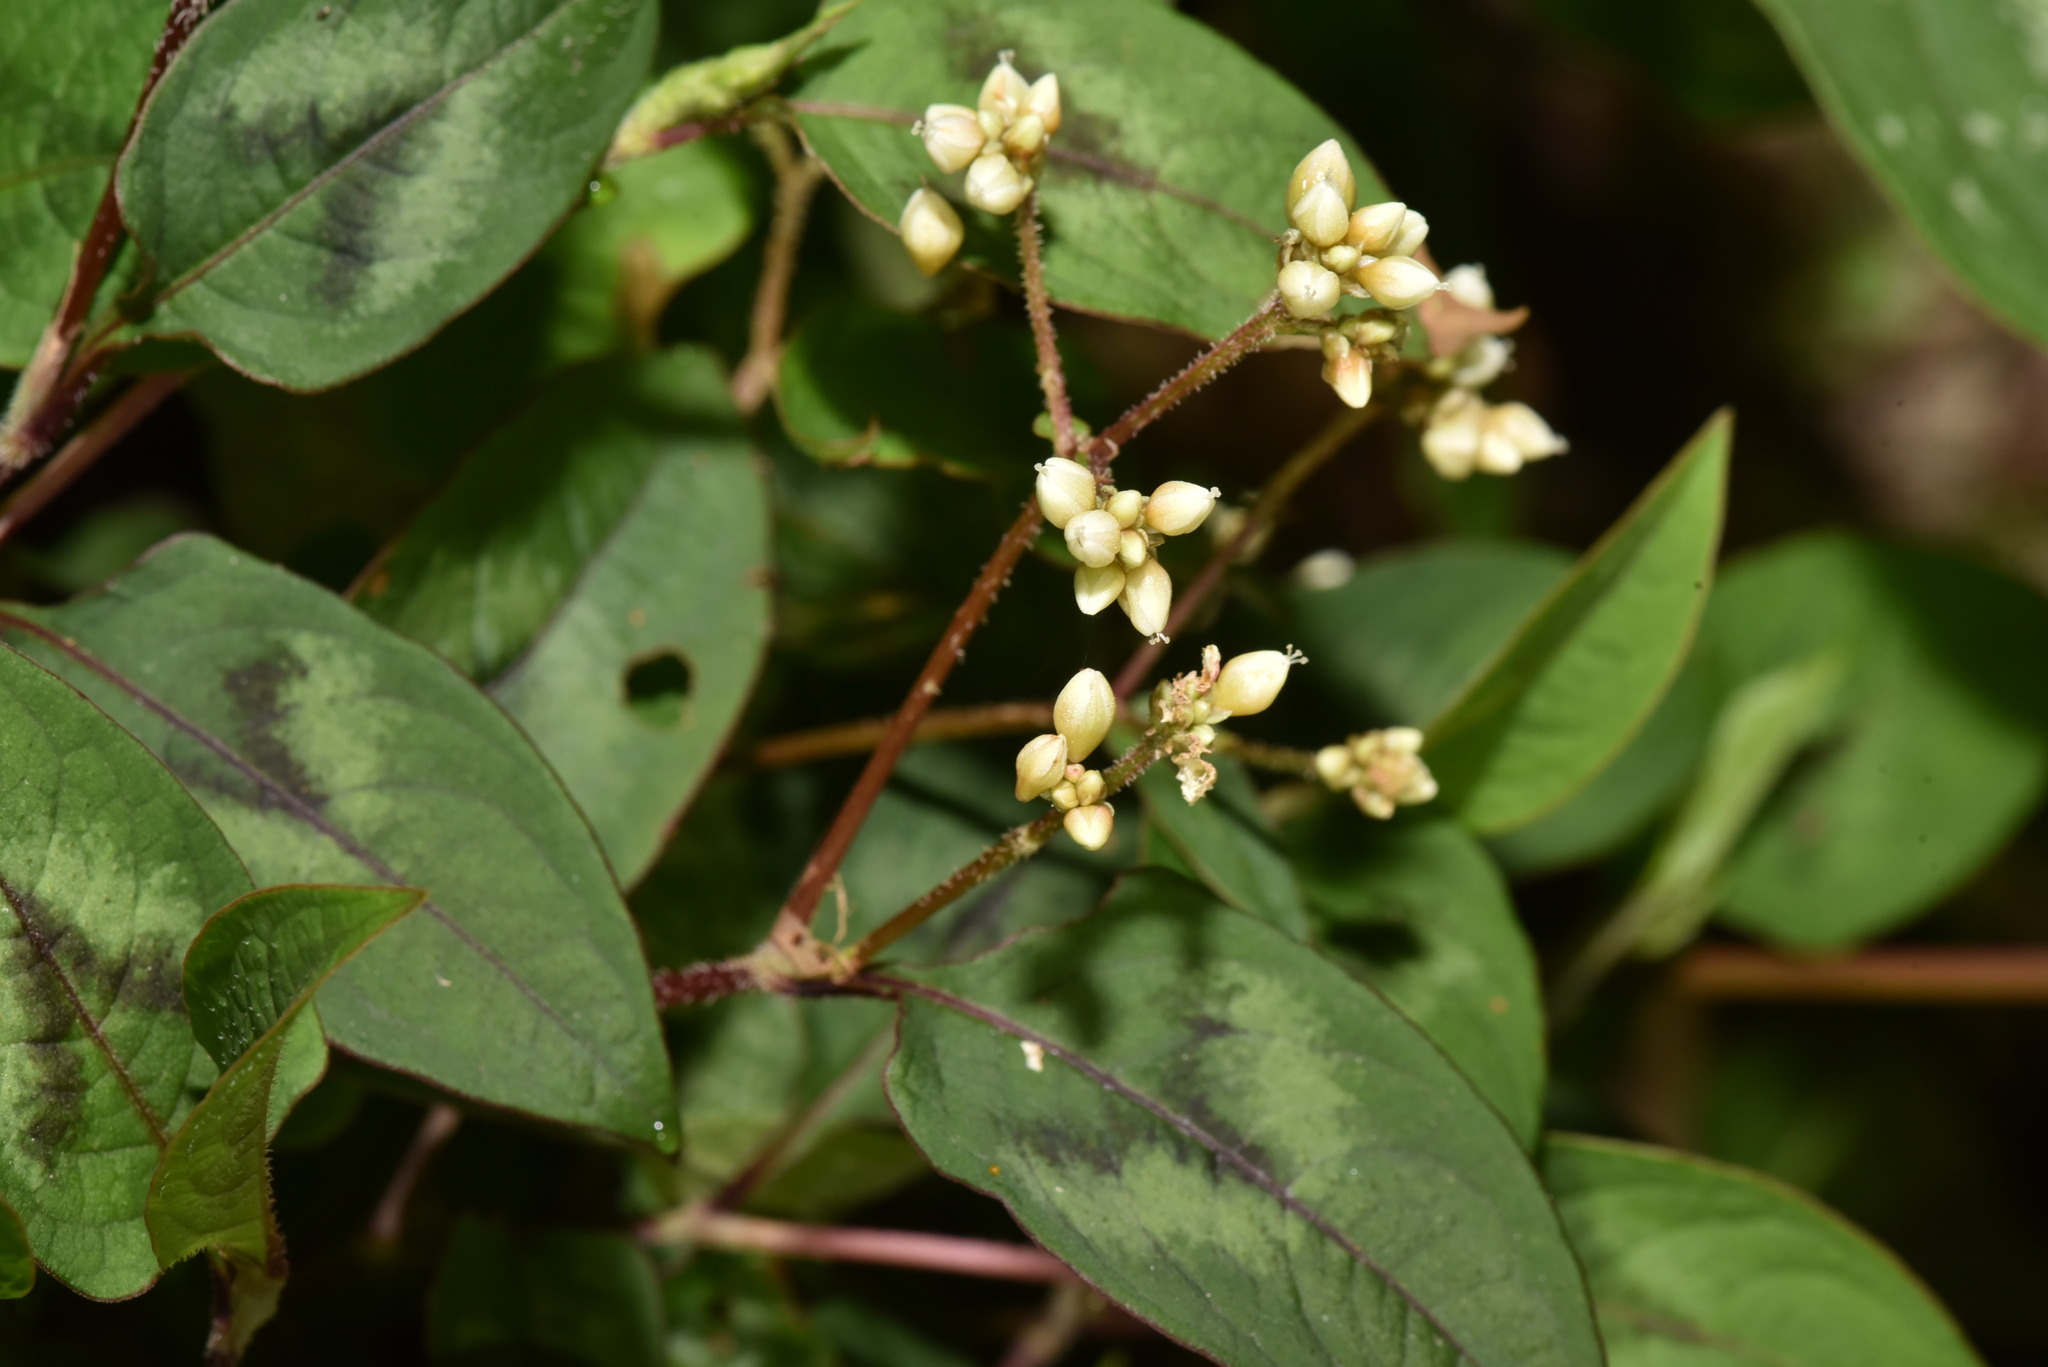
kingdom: Plantae
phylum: Tracheophyta
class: Magnoliopsida
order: Caryophyllales
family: Polygonaceae
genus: Persicaria
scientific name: Persicaria chinensis
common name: Chinese knotweed
